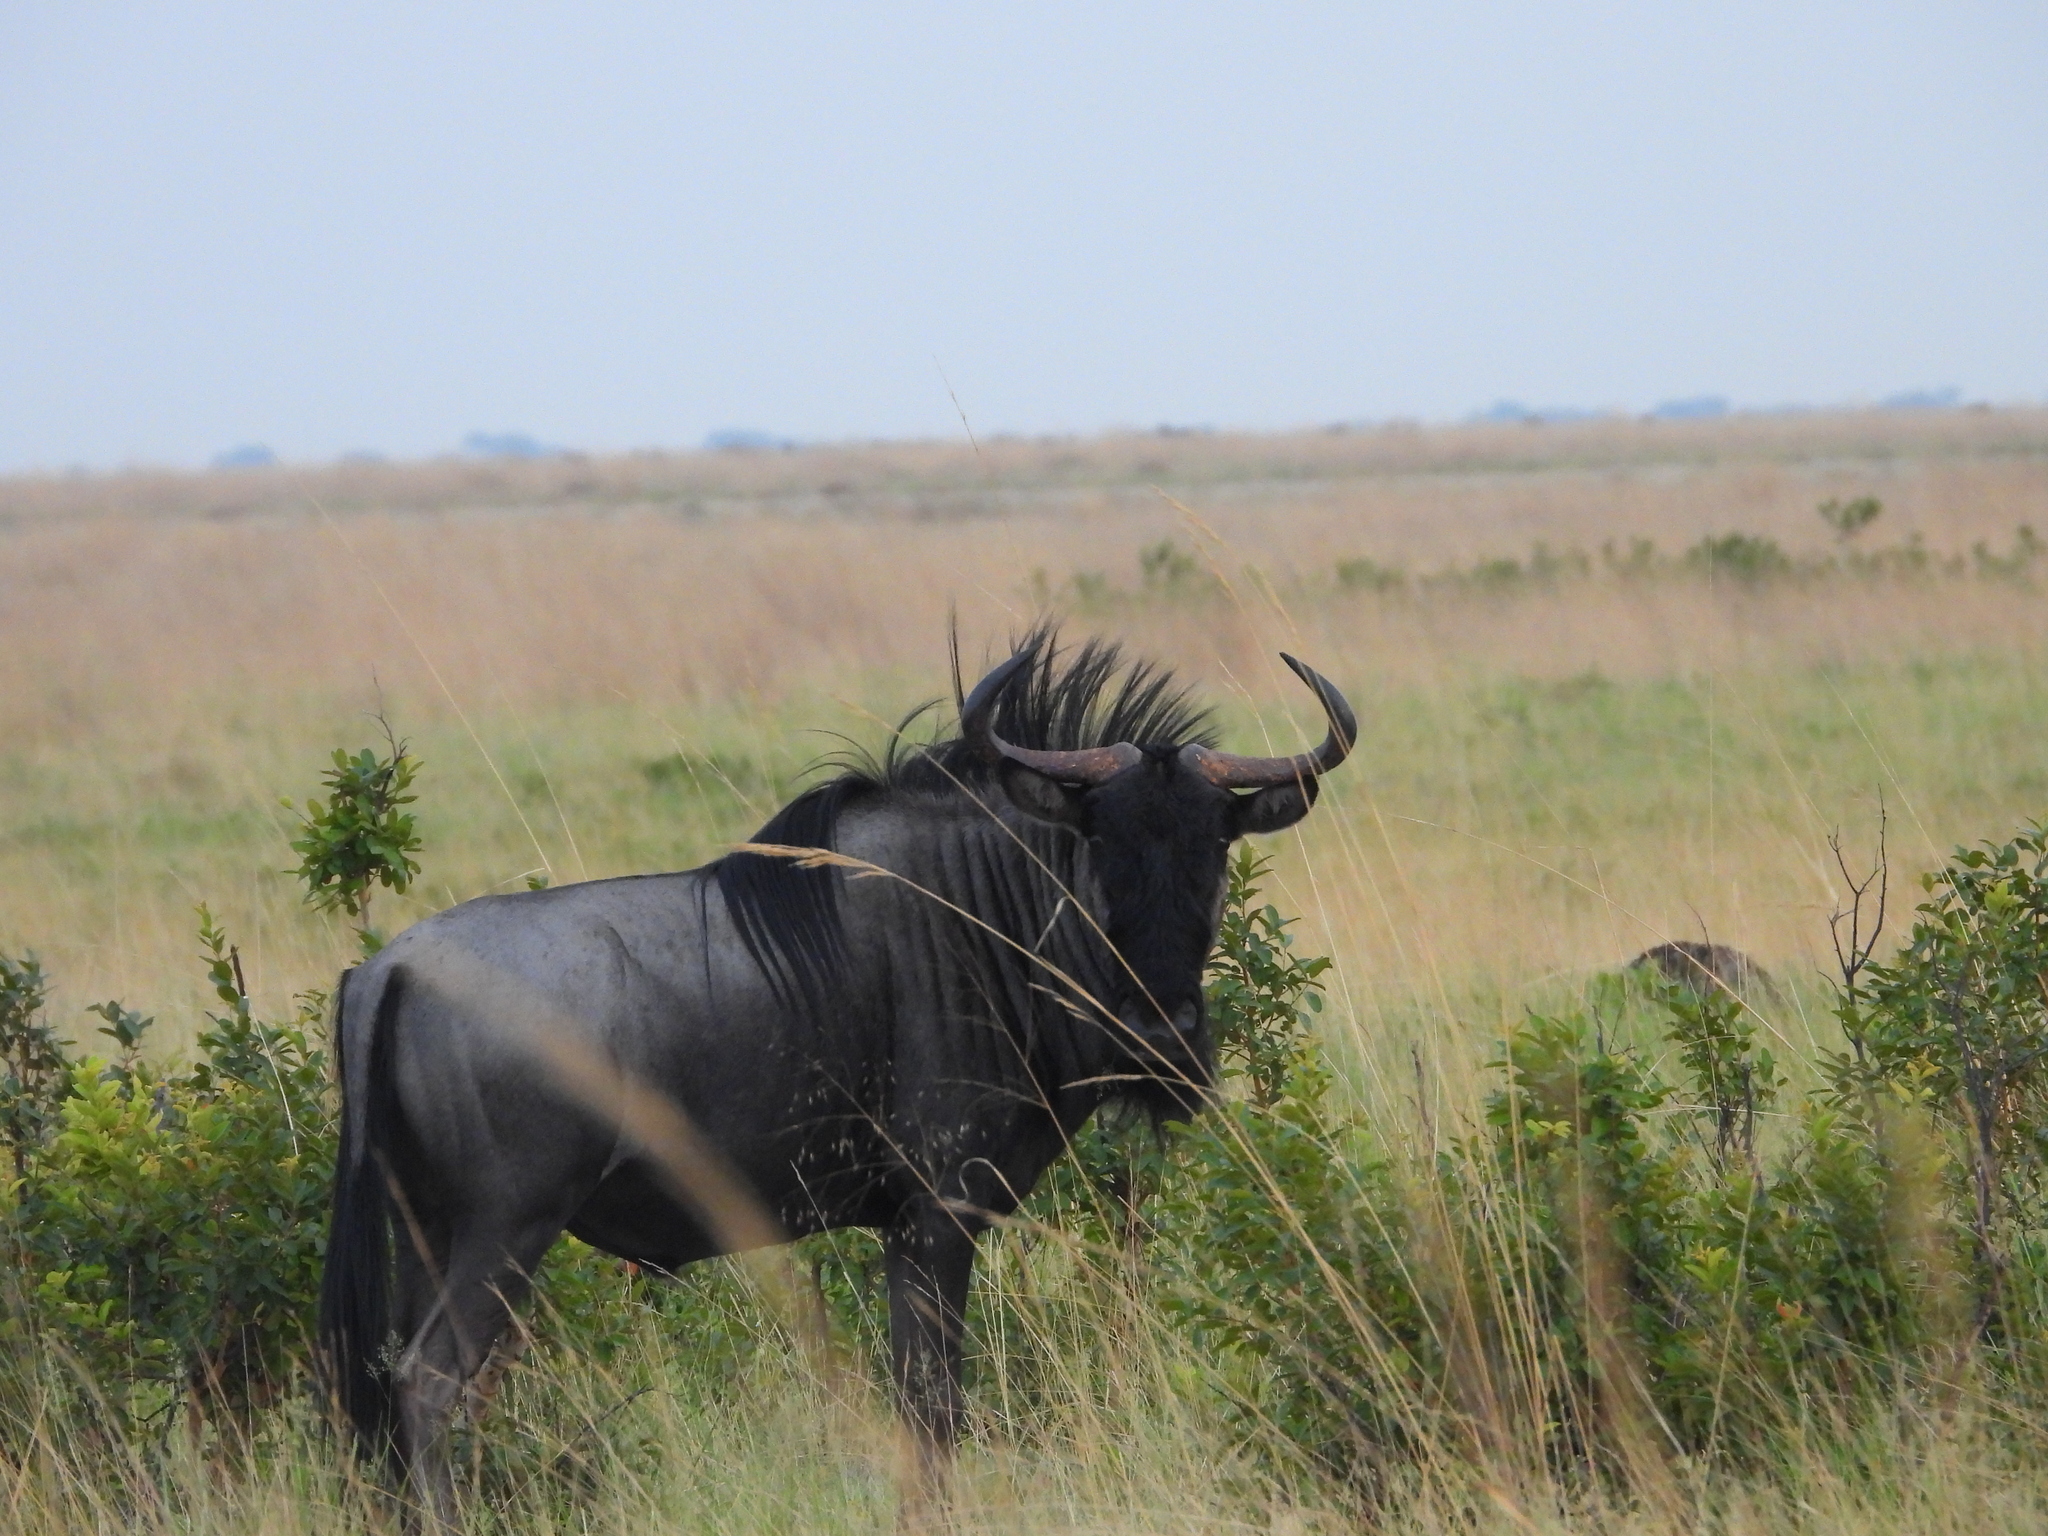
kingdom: Animalia
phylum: Chordata
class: Mammalia
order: Artiodactyla
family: Bovidae
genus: Connochaetes
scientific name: Connochaetes taurinus
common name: Blue wildebeest
